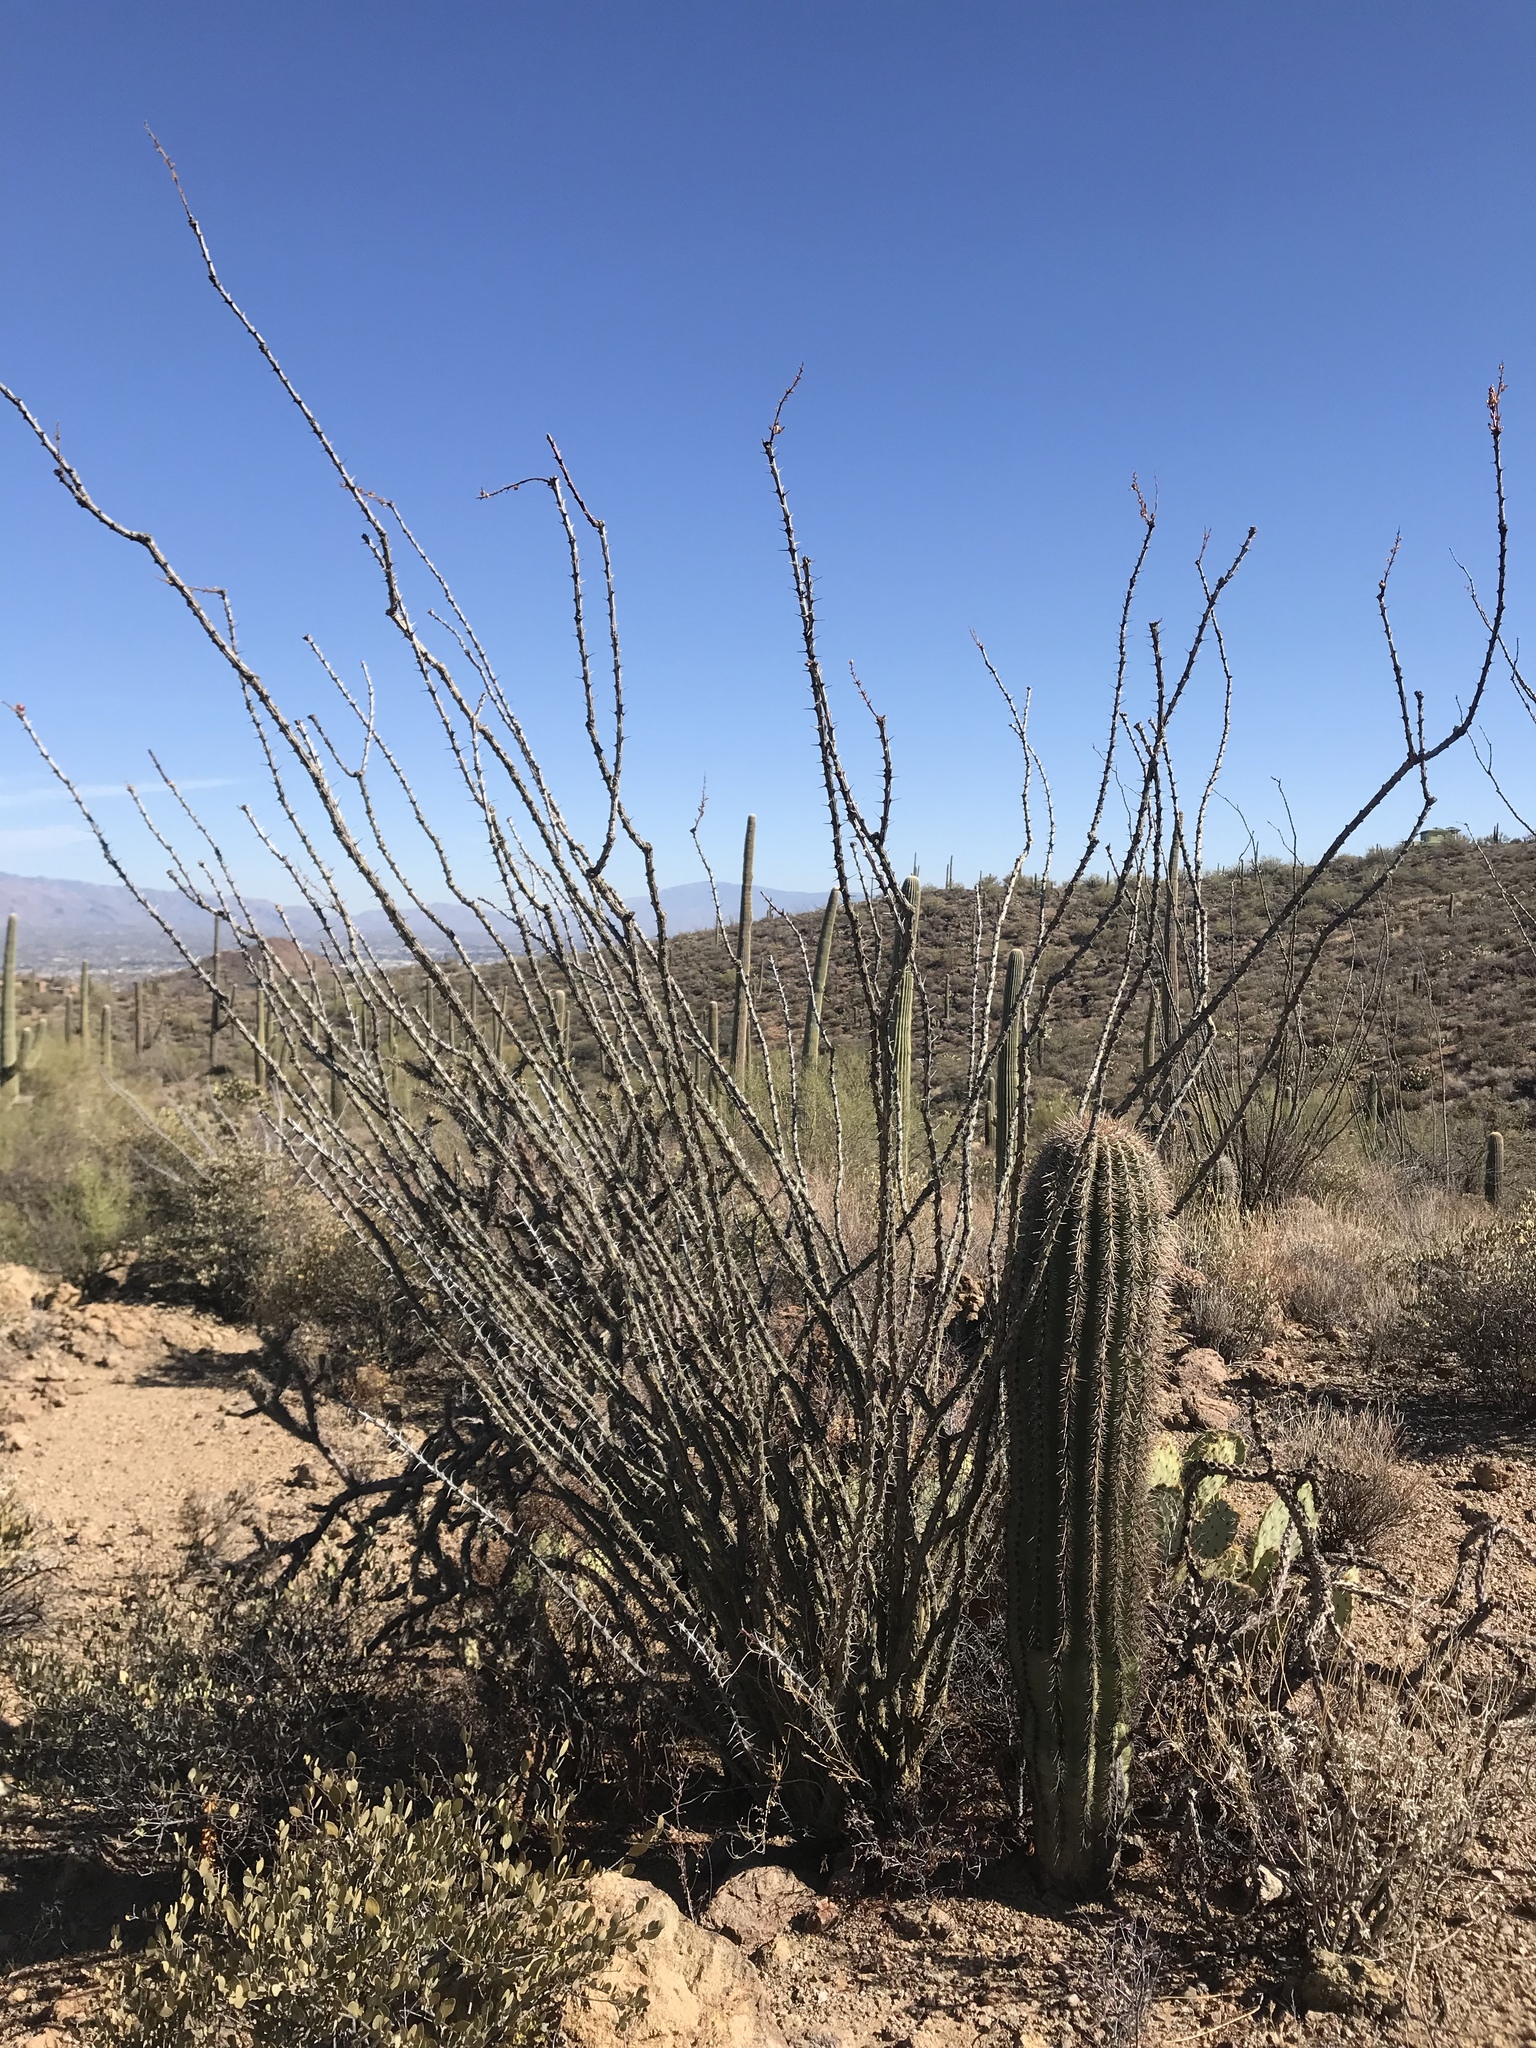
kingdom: Plantae
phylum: Tracheophyta
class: Magnoliopsida
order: Ericales
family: Fouquieriaceae
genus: Fouquieria
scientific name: Fouquieria splendens
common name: Vine-cactus
